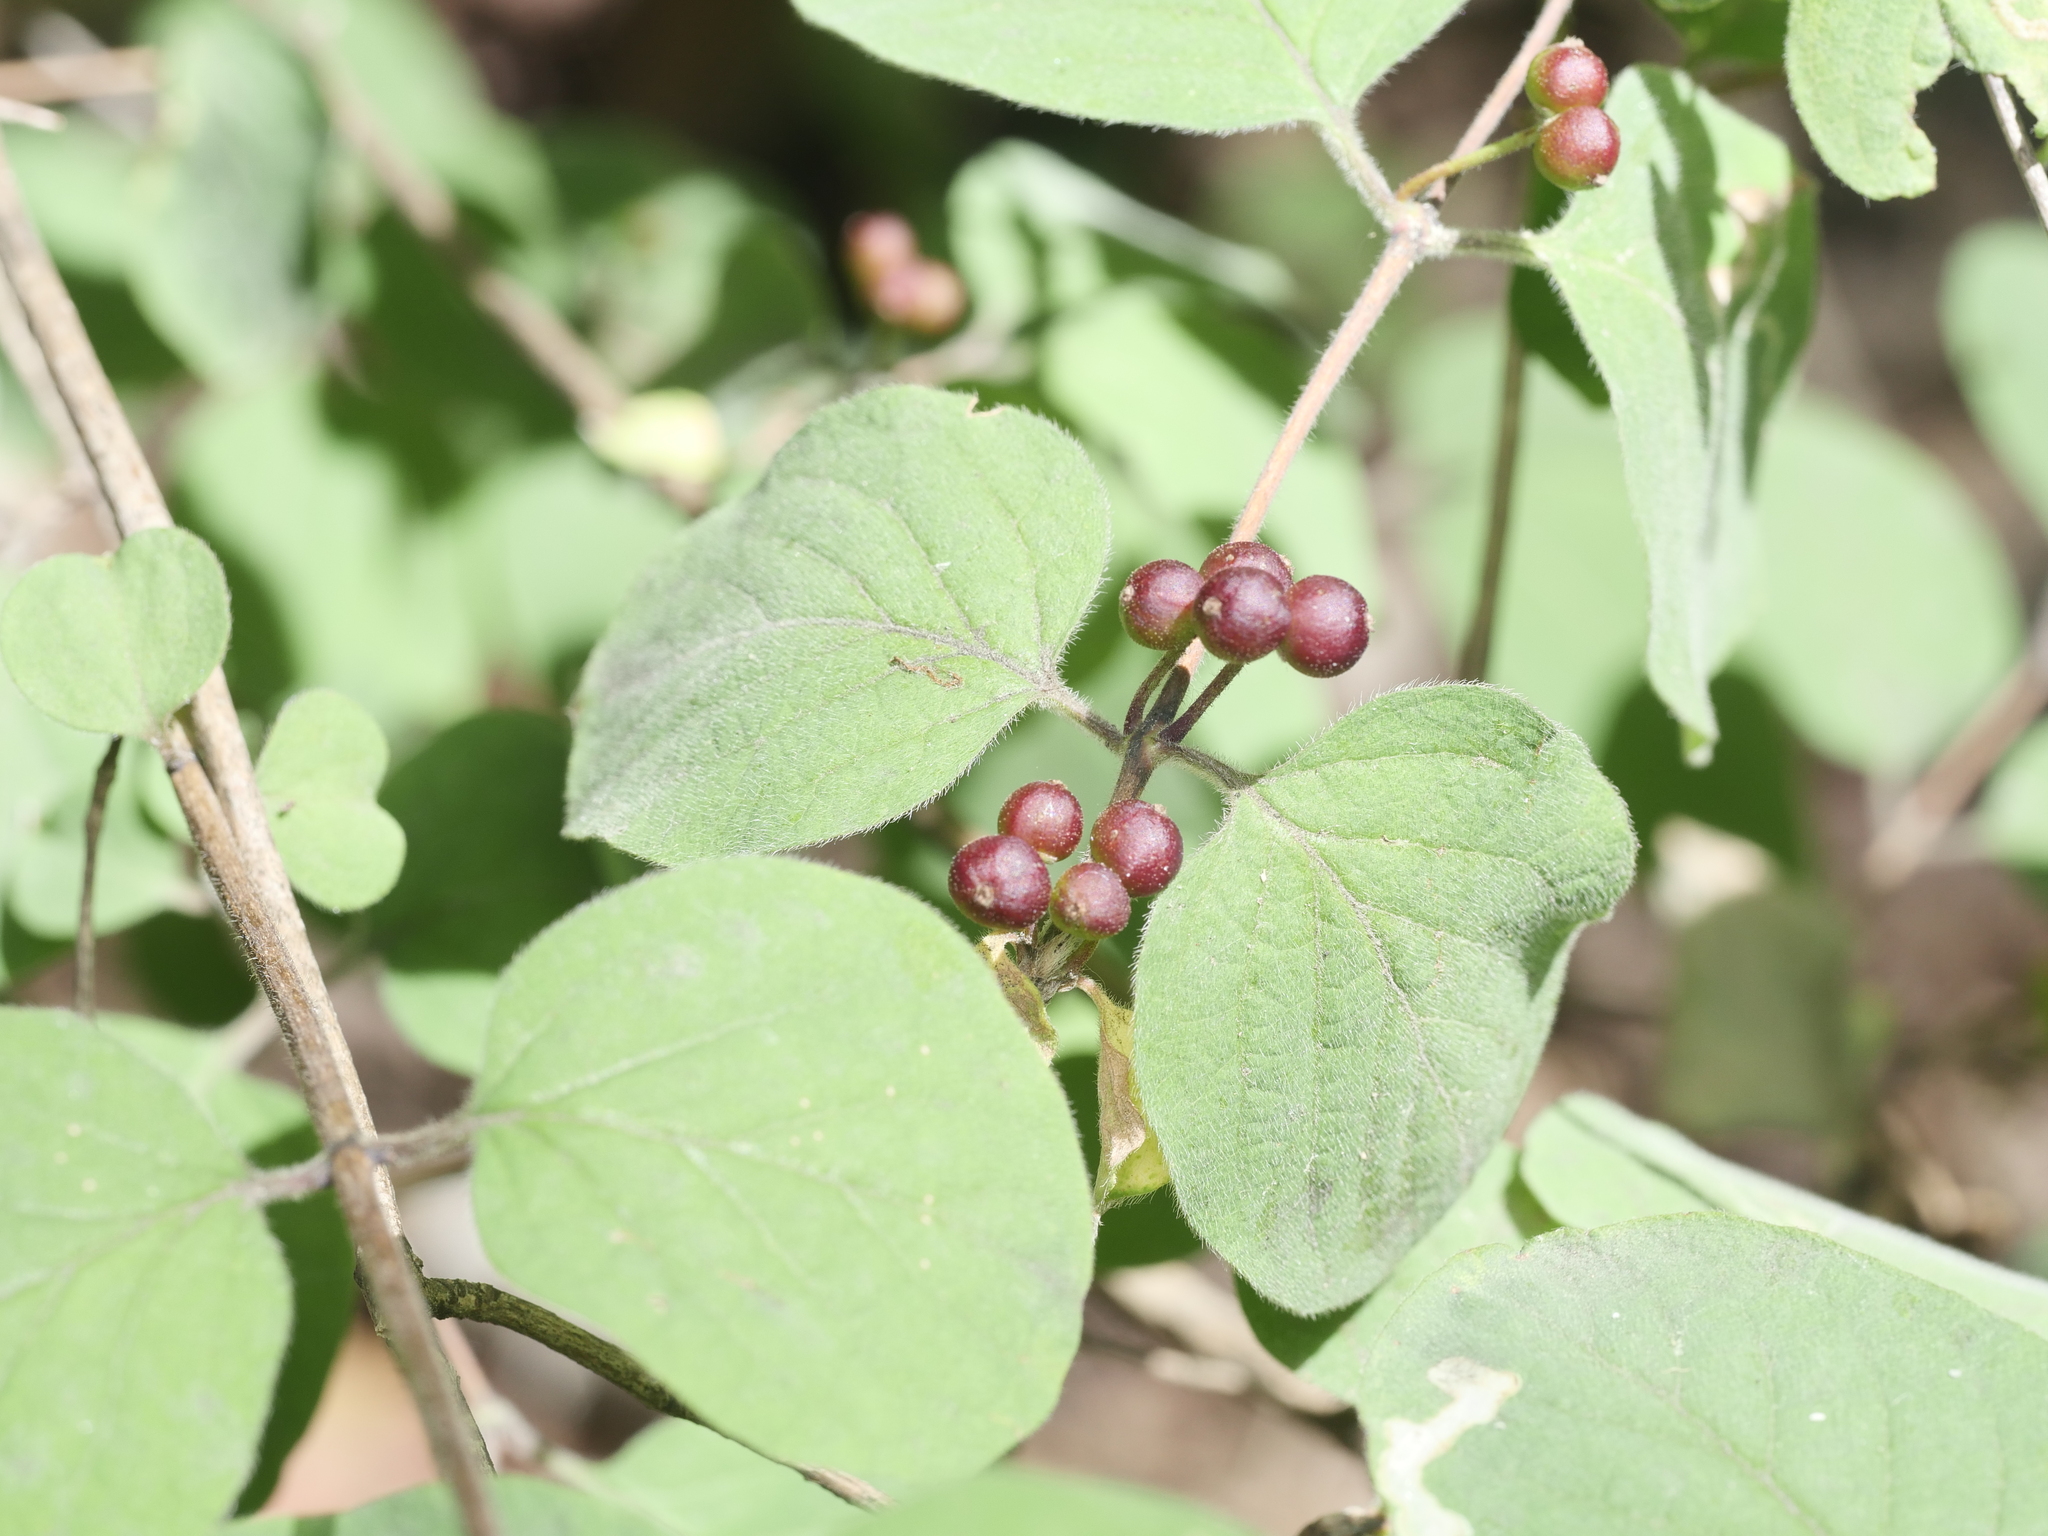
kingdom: Plantae
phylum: Tracheophyta
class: Magnoliopsida
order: Dipsacales
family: Caprifoliaceae
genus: Lonicera
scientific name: Lonicera xylosteum
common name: Fly honeysuckle
